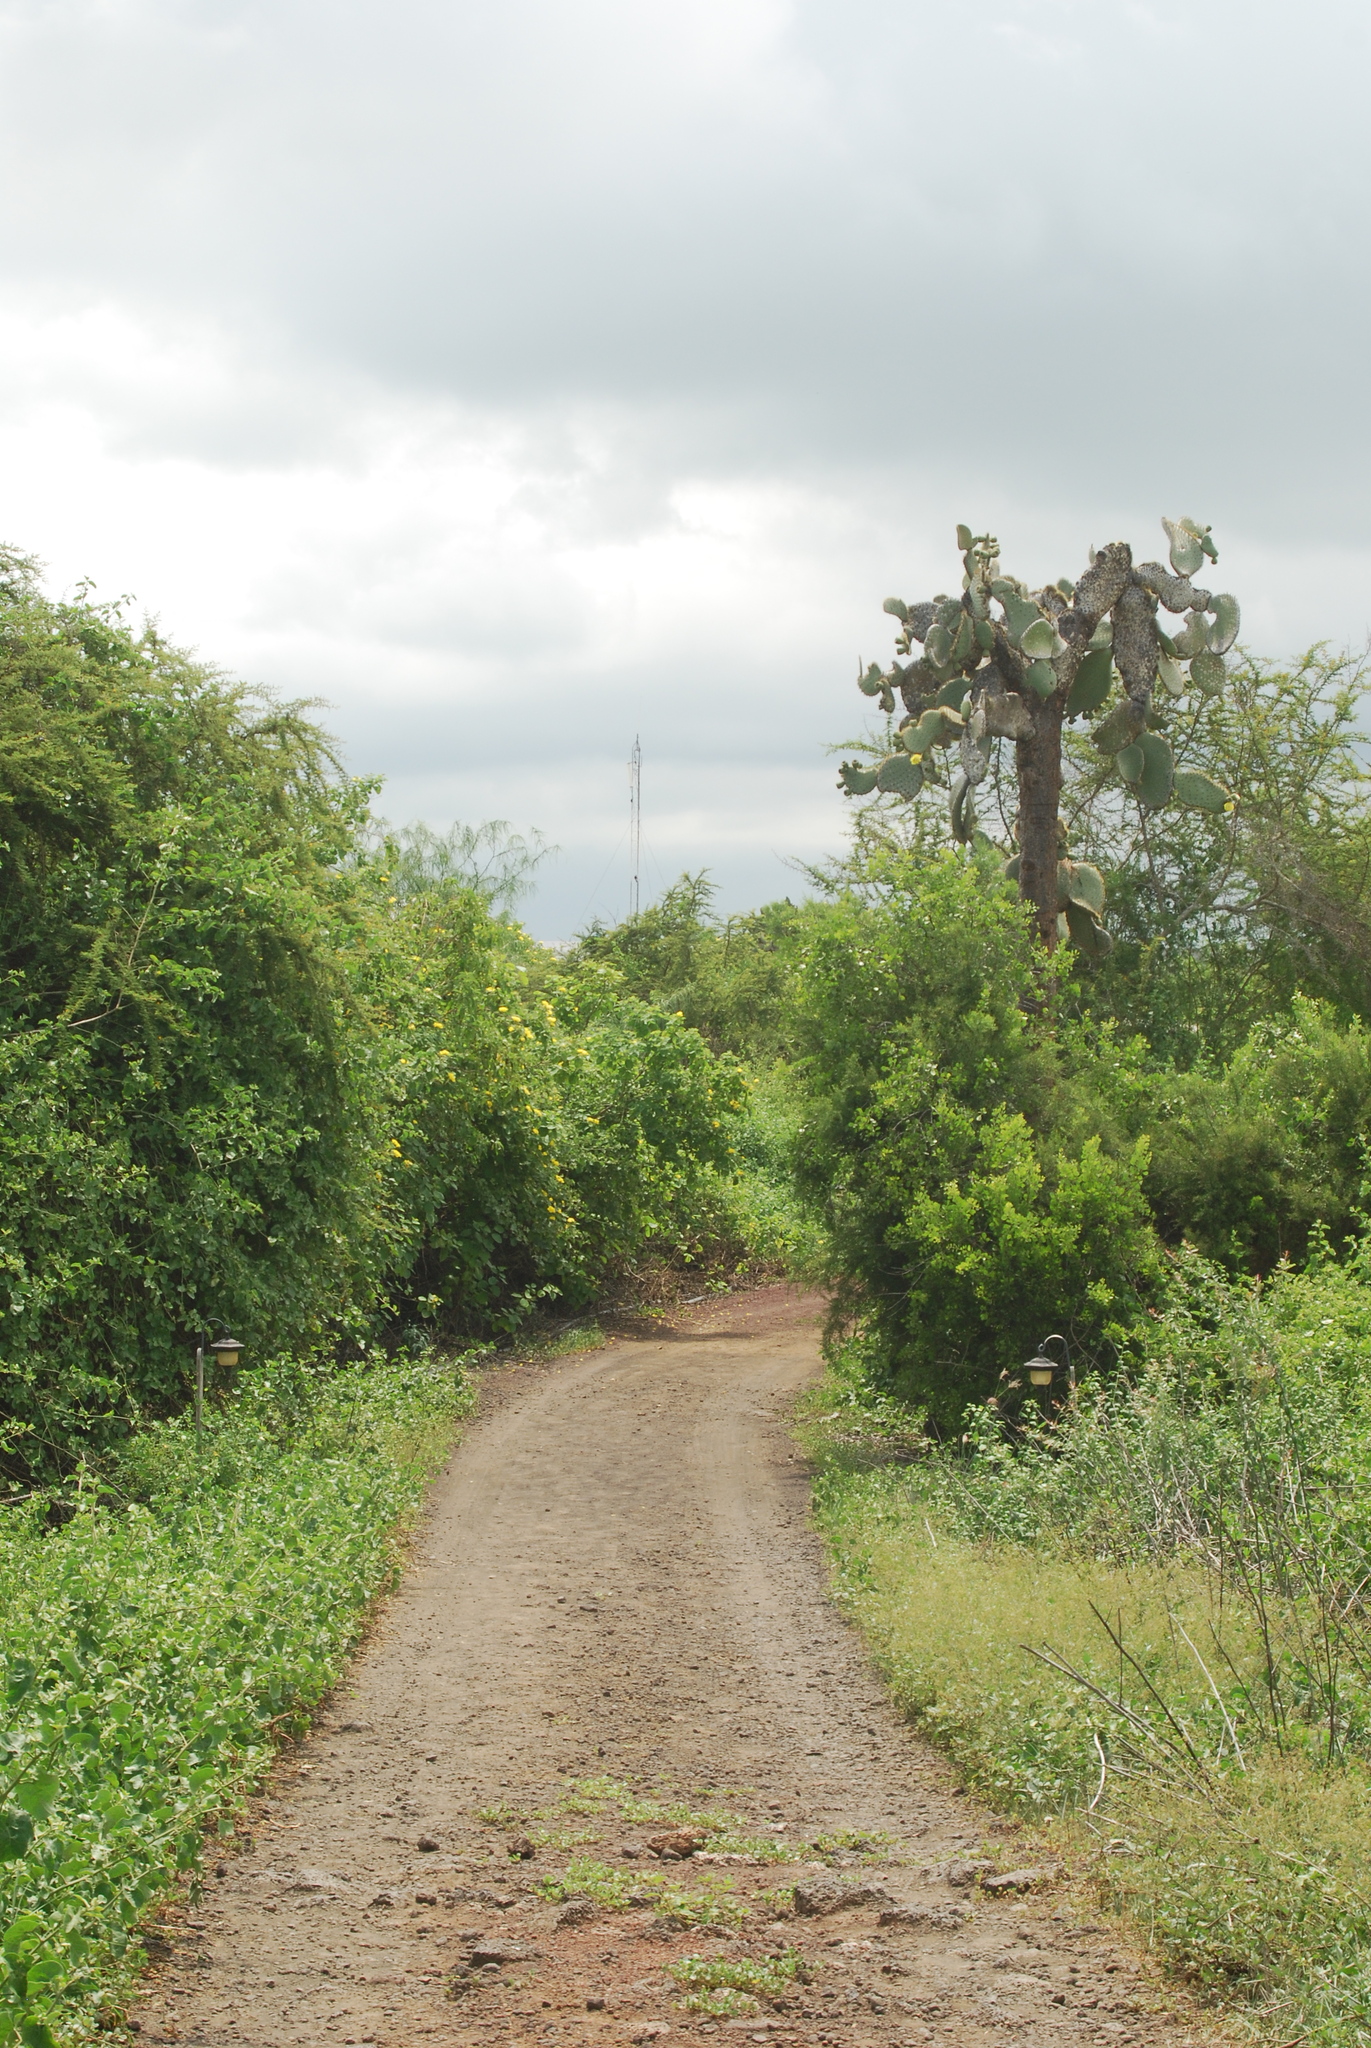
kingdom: Plantae
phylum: Tracheophyta
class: Magnoliopsida
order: Caryophyllales
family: Cactaceae
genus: Opuntia
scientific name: Opuntia galapageia
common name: Galápagos prickly pear
